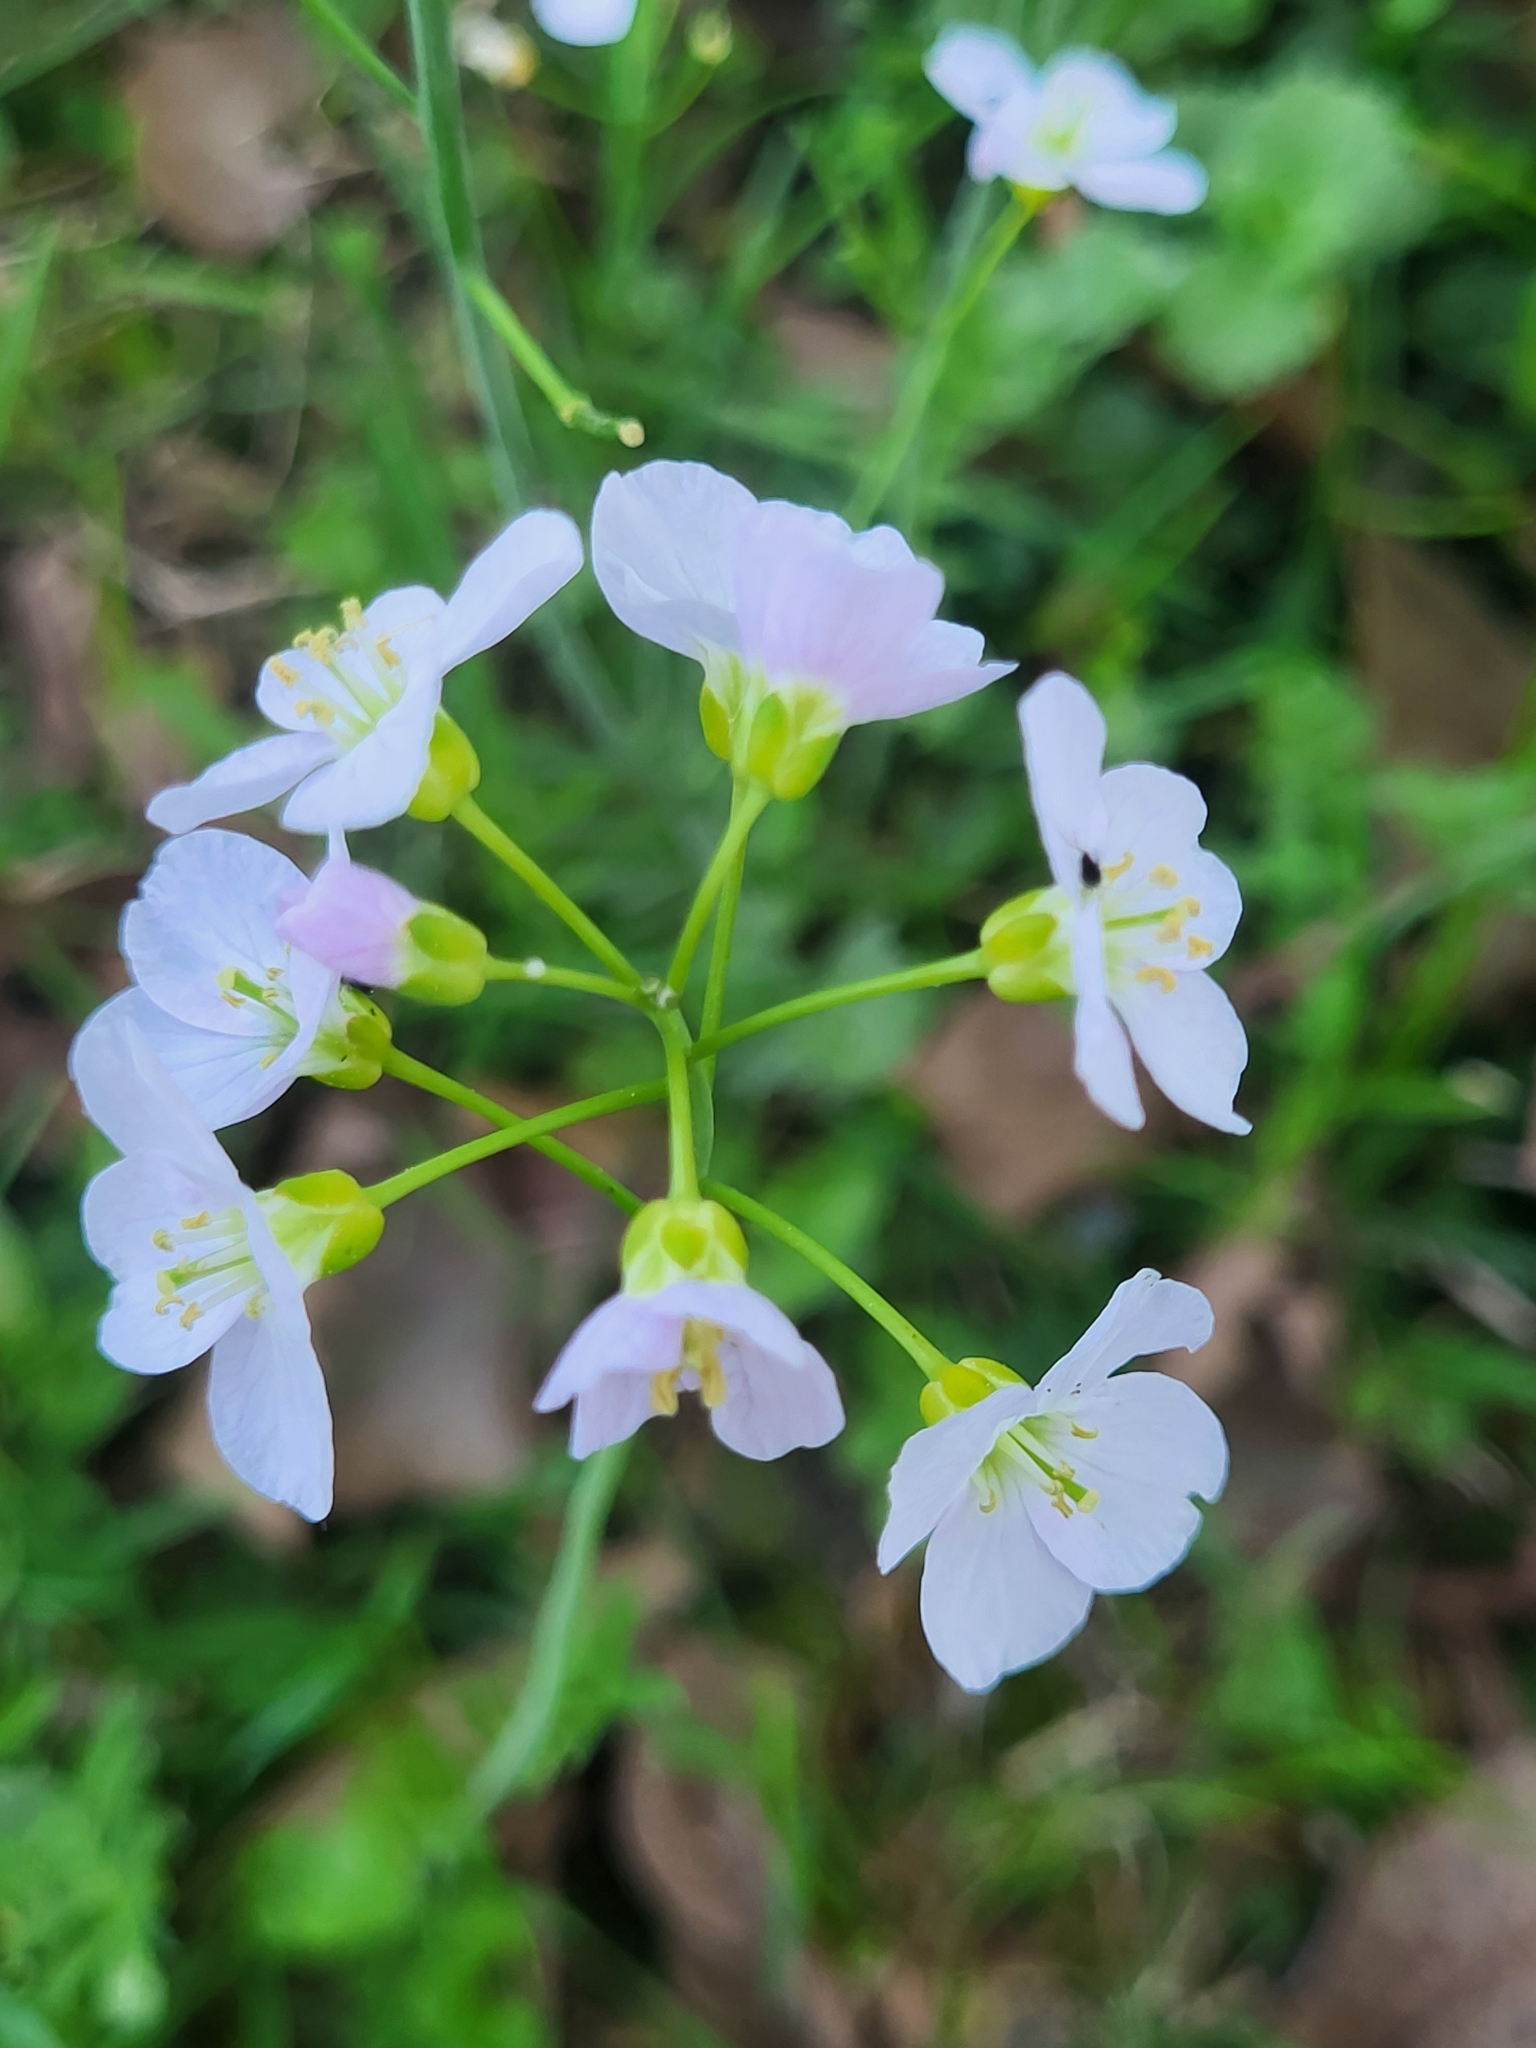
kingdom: Plantae
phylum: Tracheophyta
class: Magnoliopsida
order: Brassicales
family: Brassicaceae
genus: Cardamine
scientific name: Cardamine pratensis
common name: Cuckoo flower
